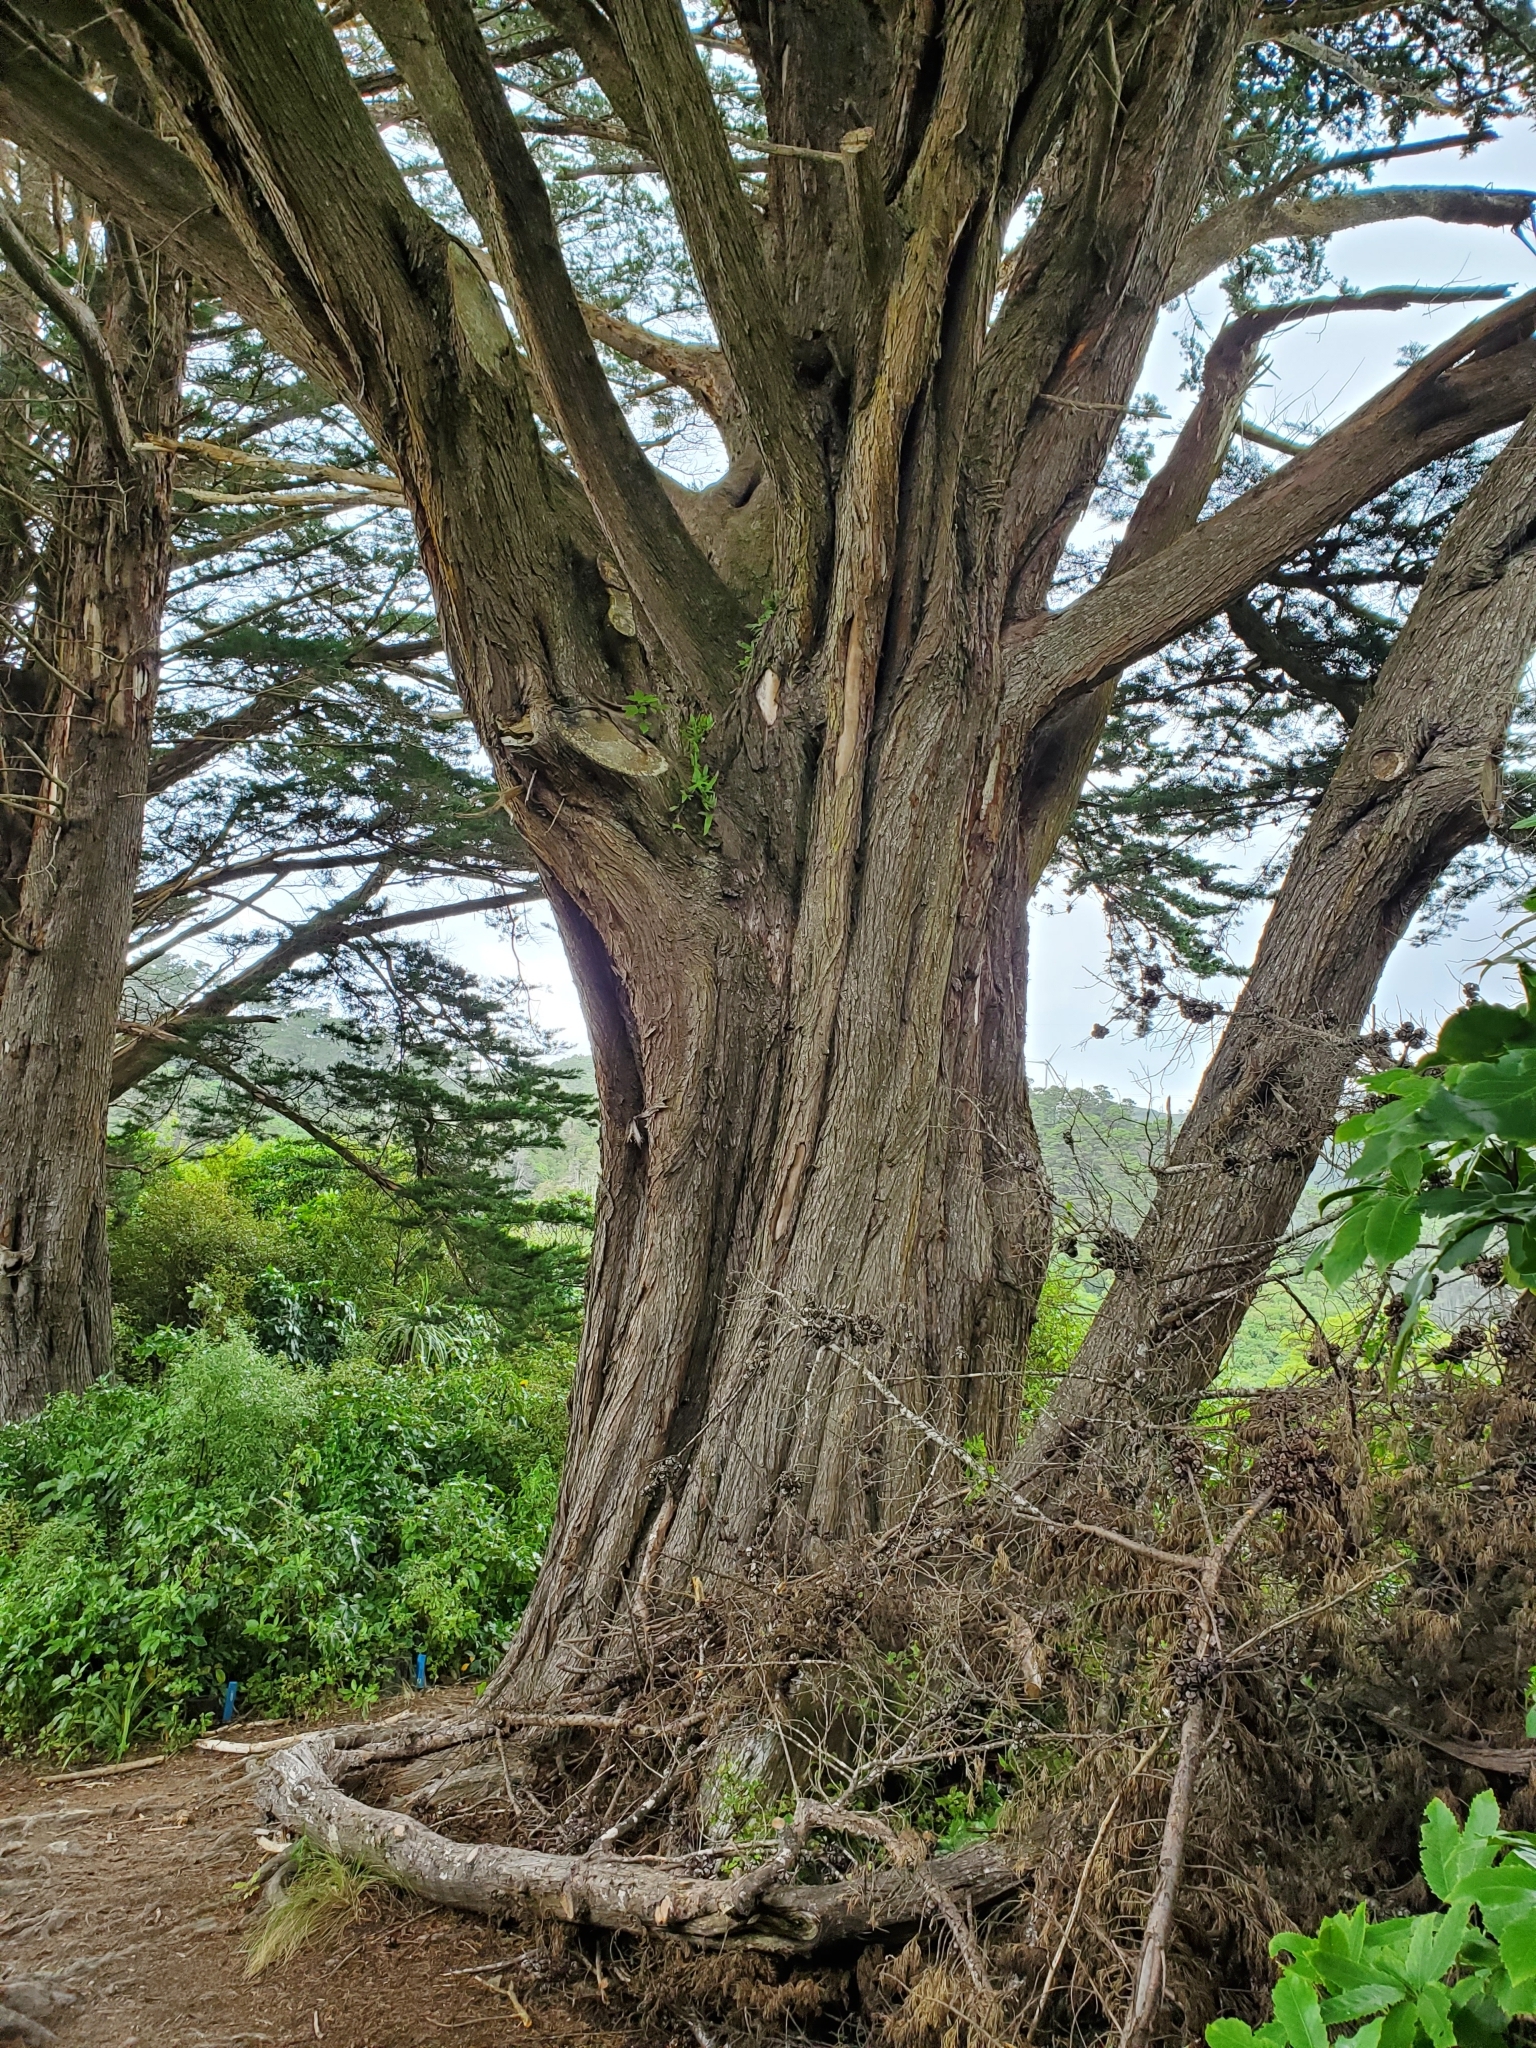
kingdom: Plantae
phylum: Tracheophyta
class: Pinopsida
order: Pinales
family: Cupressaceae
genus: Cupressus
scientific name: Cupressus macrocarpa
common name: Monterey cypress
